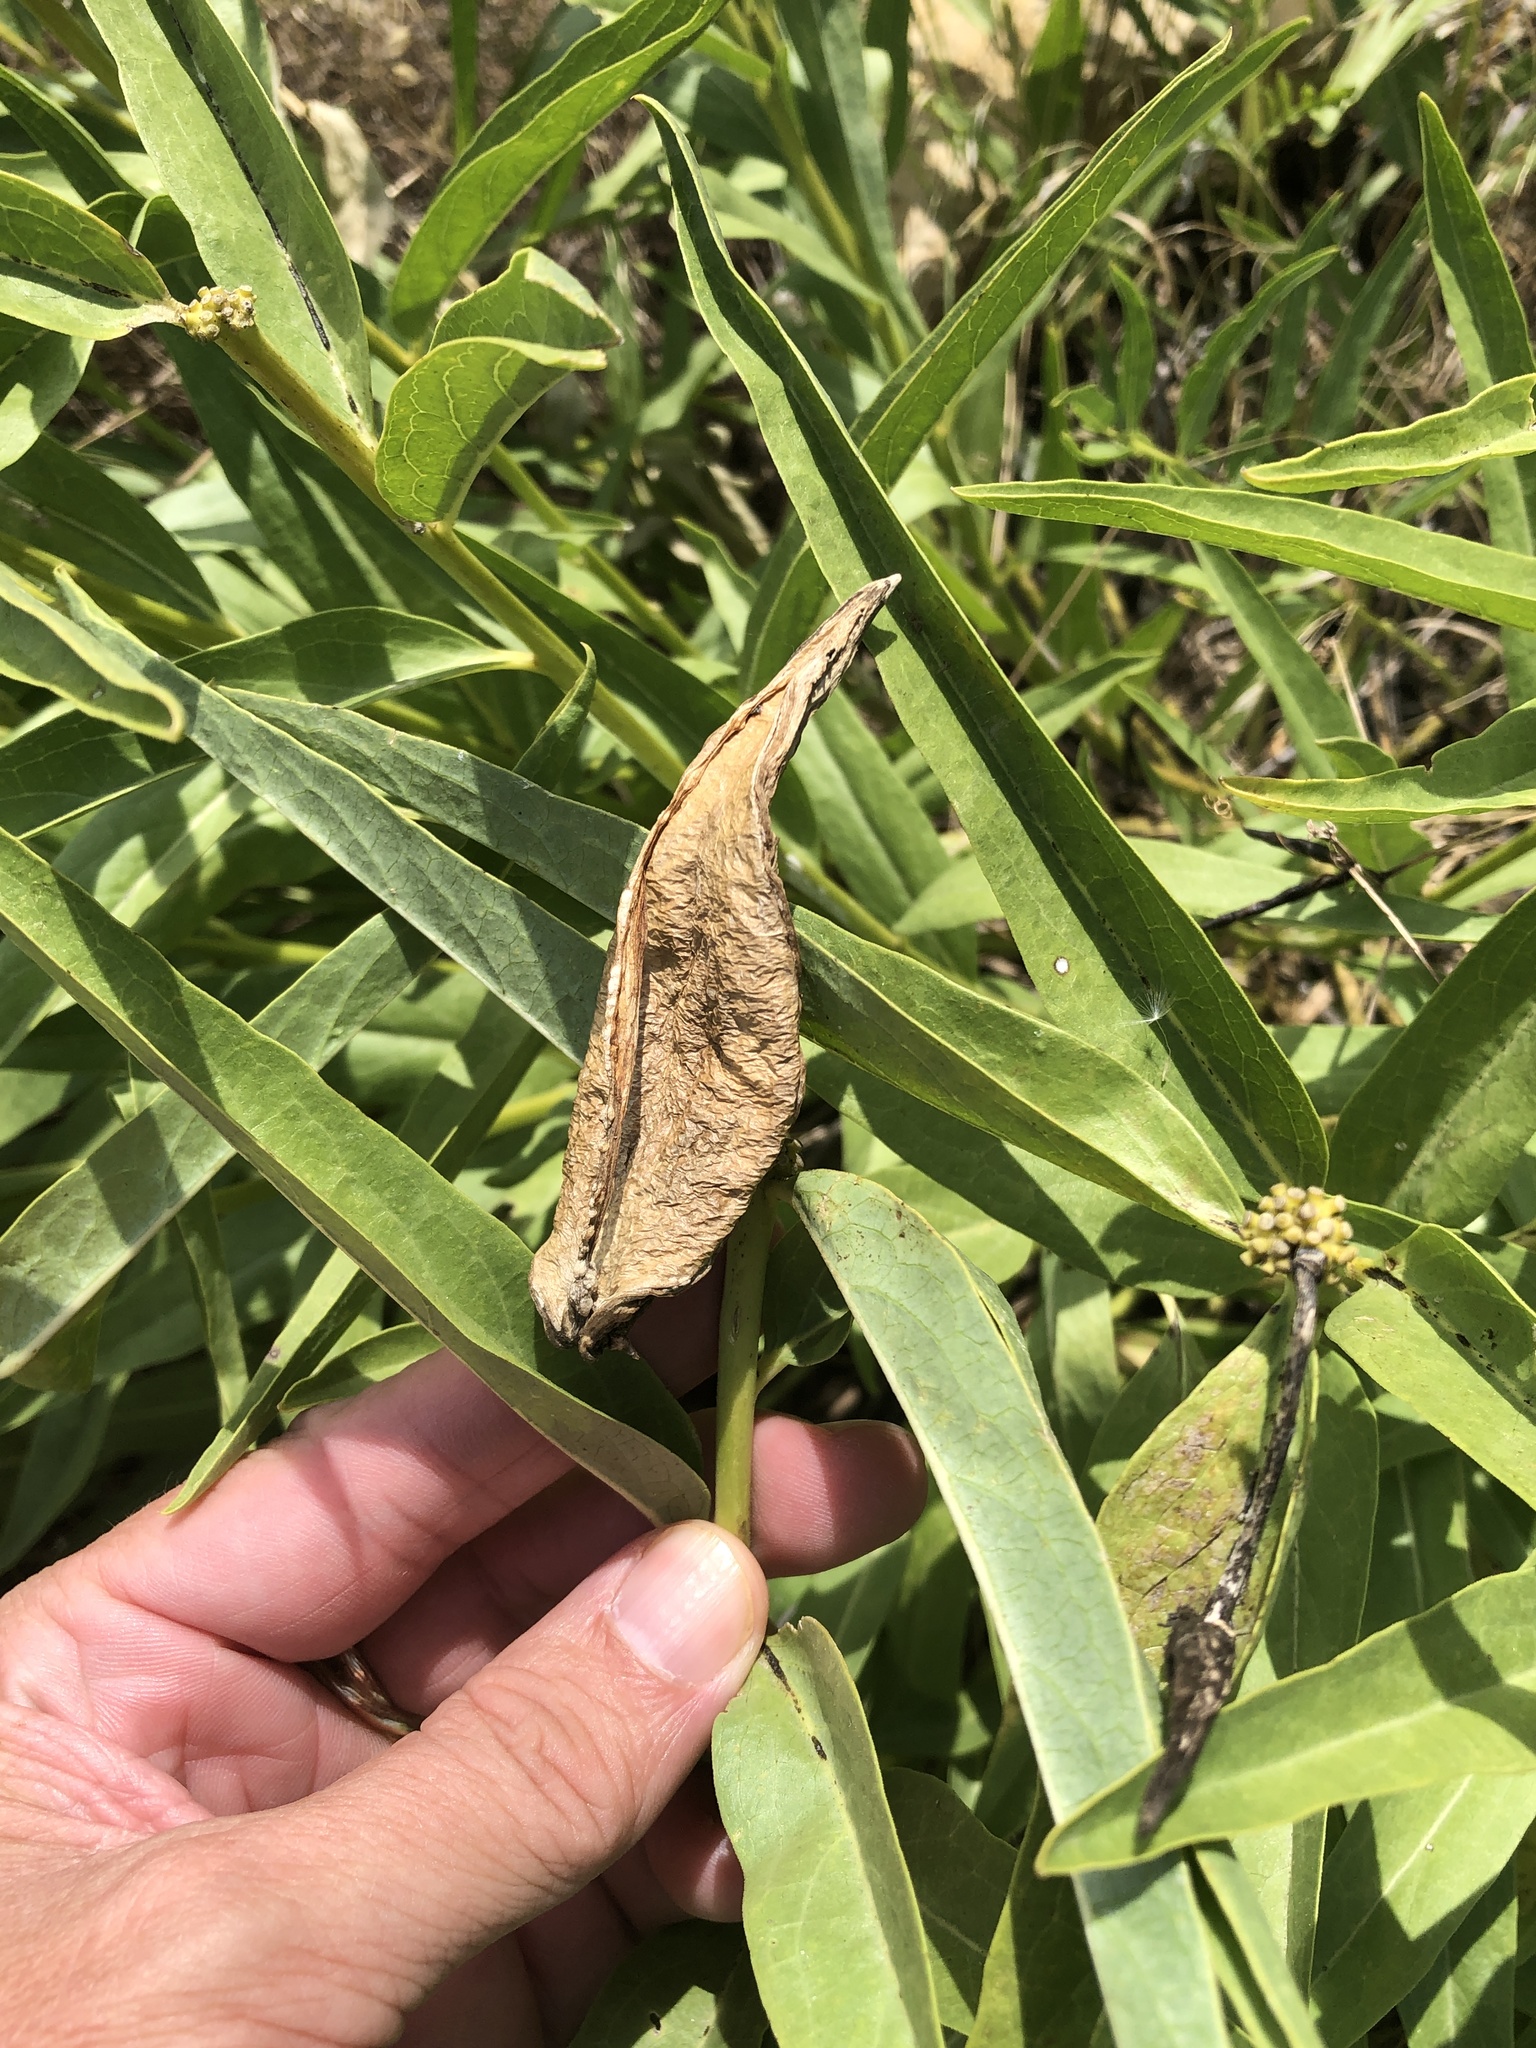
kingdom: Plantae
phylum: Tracheophyta
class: Magnoliopsida
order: Gentianales
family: Apocynaceae
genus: Asclepias
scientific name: Asclepias asperula
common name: Antelope horns
